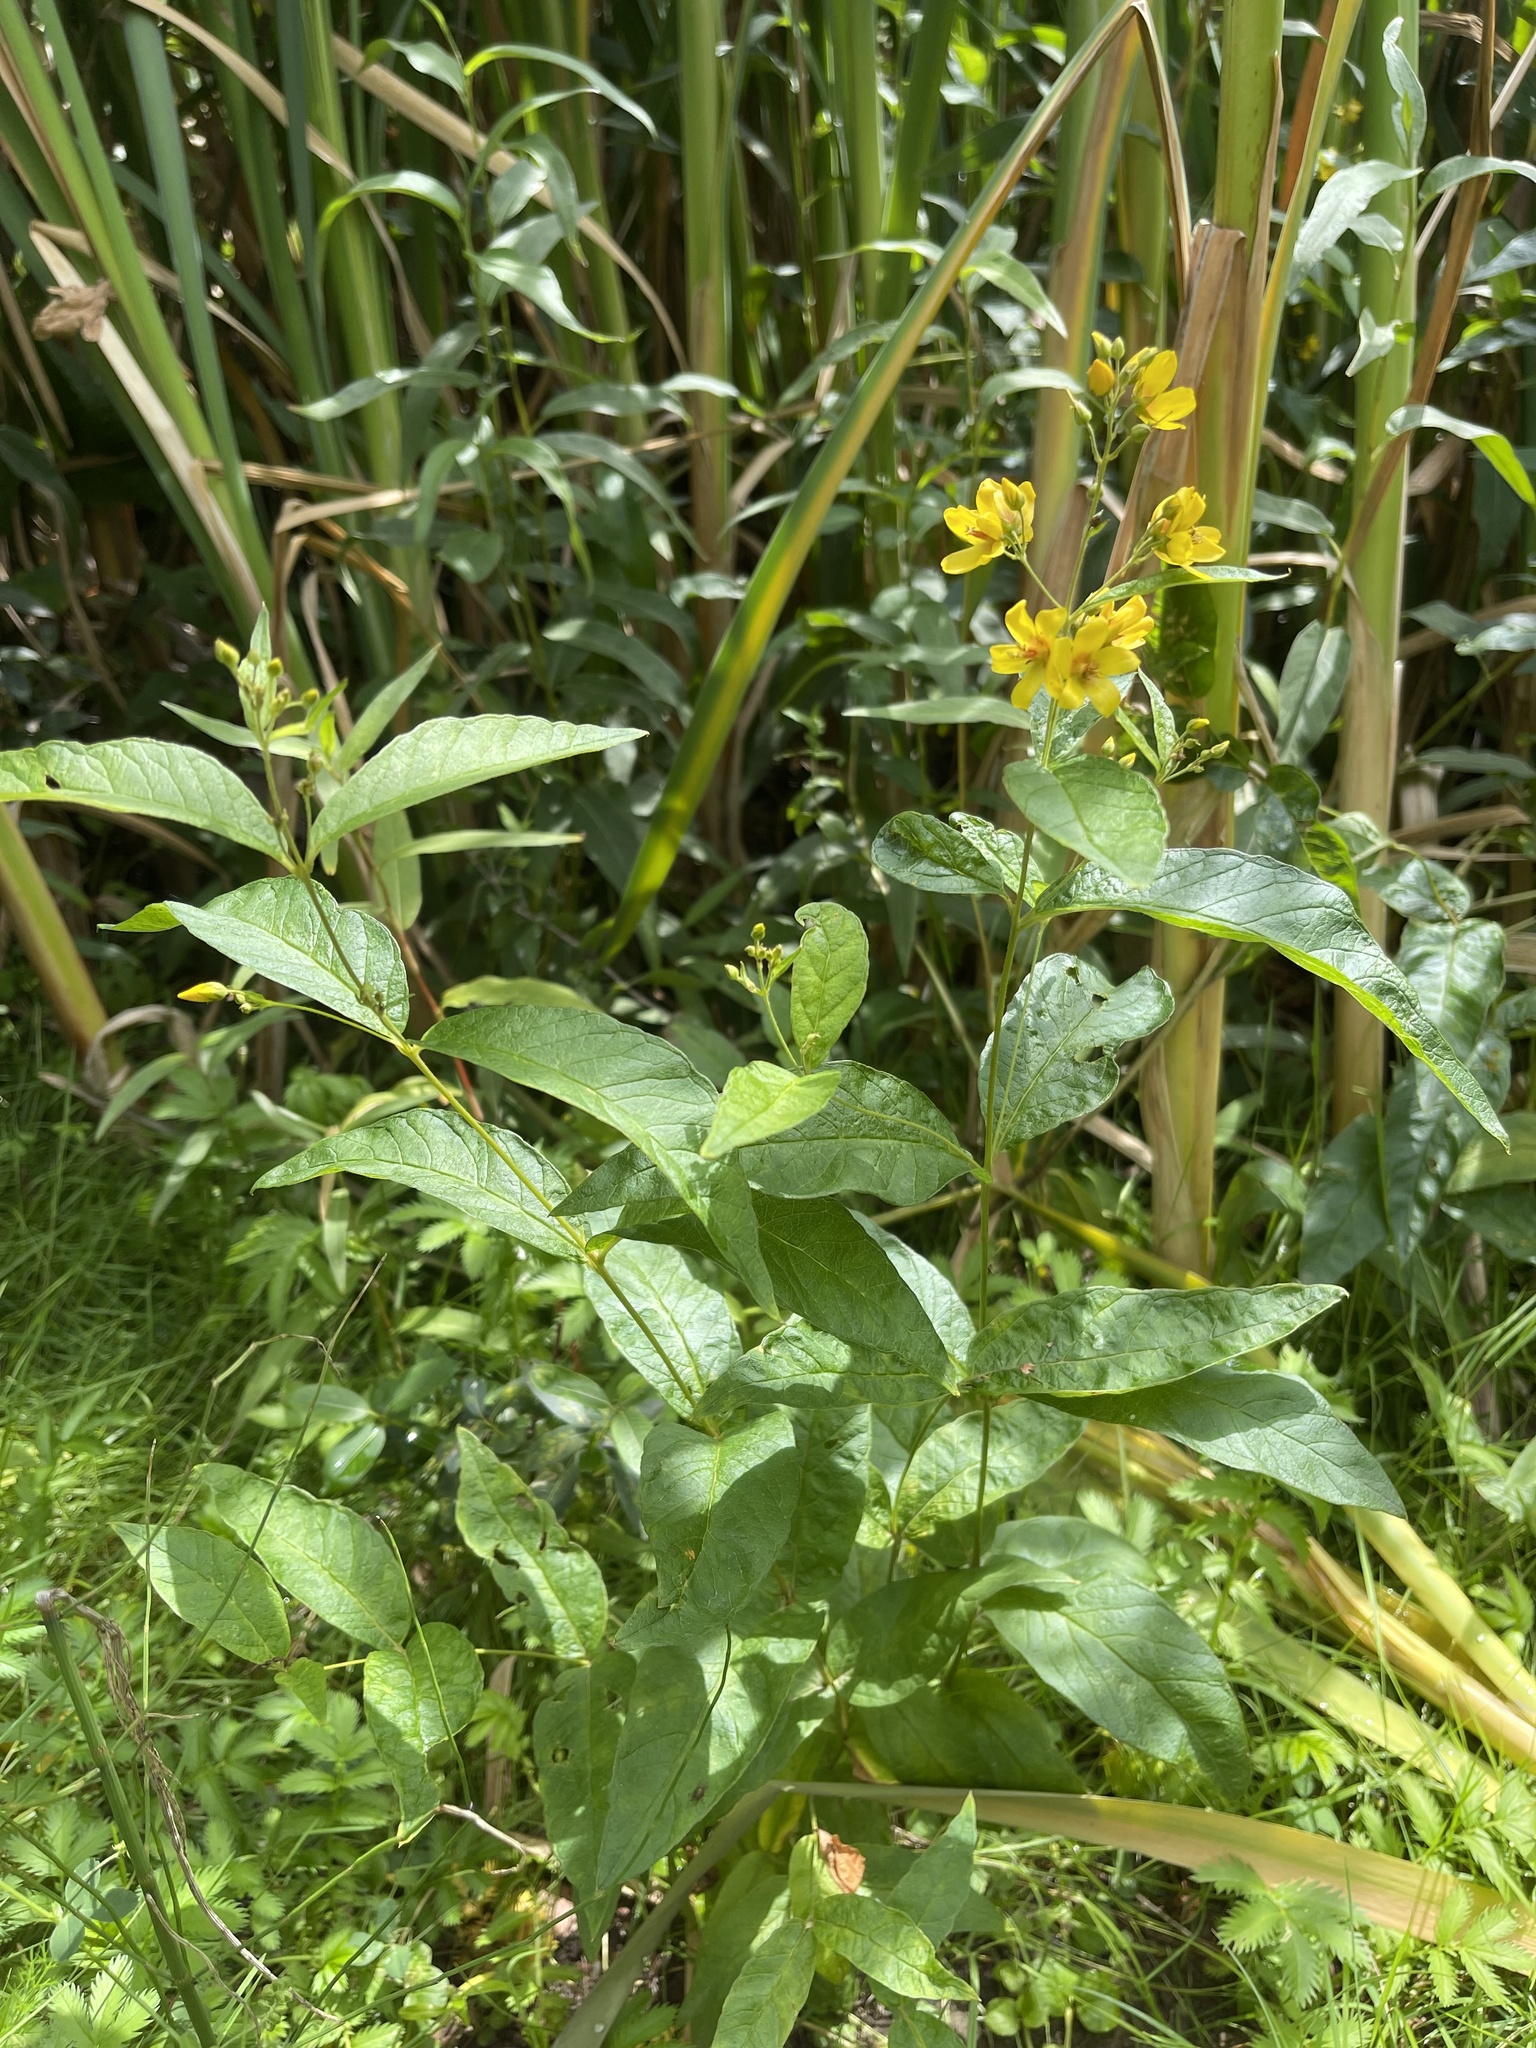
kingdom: Plantae
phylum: Tracheophyta
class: Magnoliopsida
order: Ericales
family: Primulaceae
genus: Lysimachia
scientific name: Lysimachia vulgaris
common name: Yellow loosestrife
